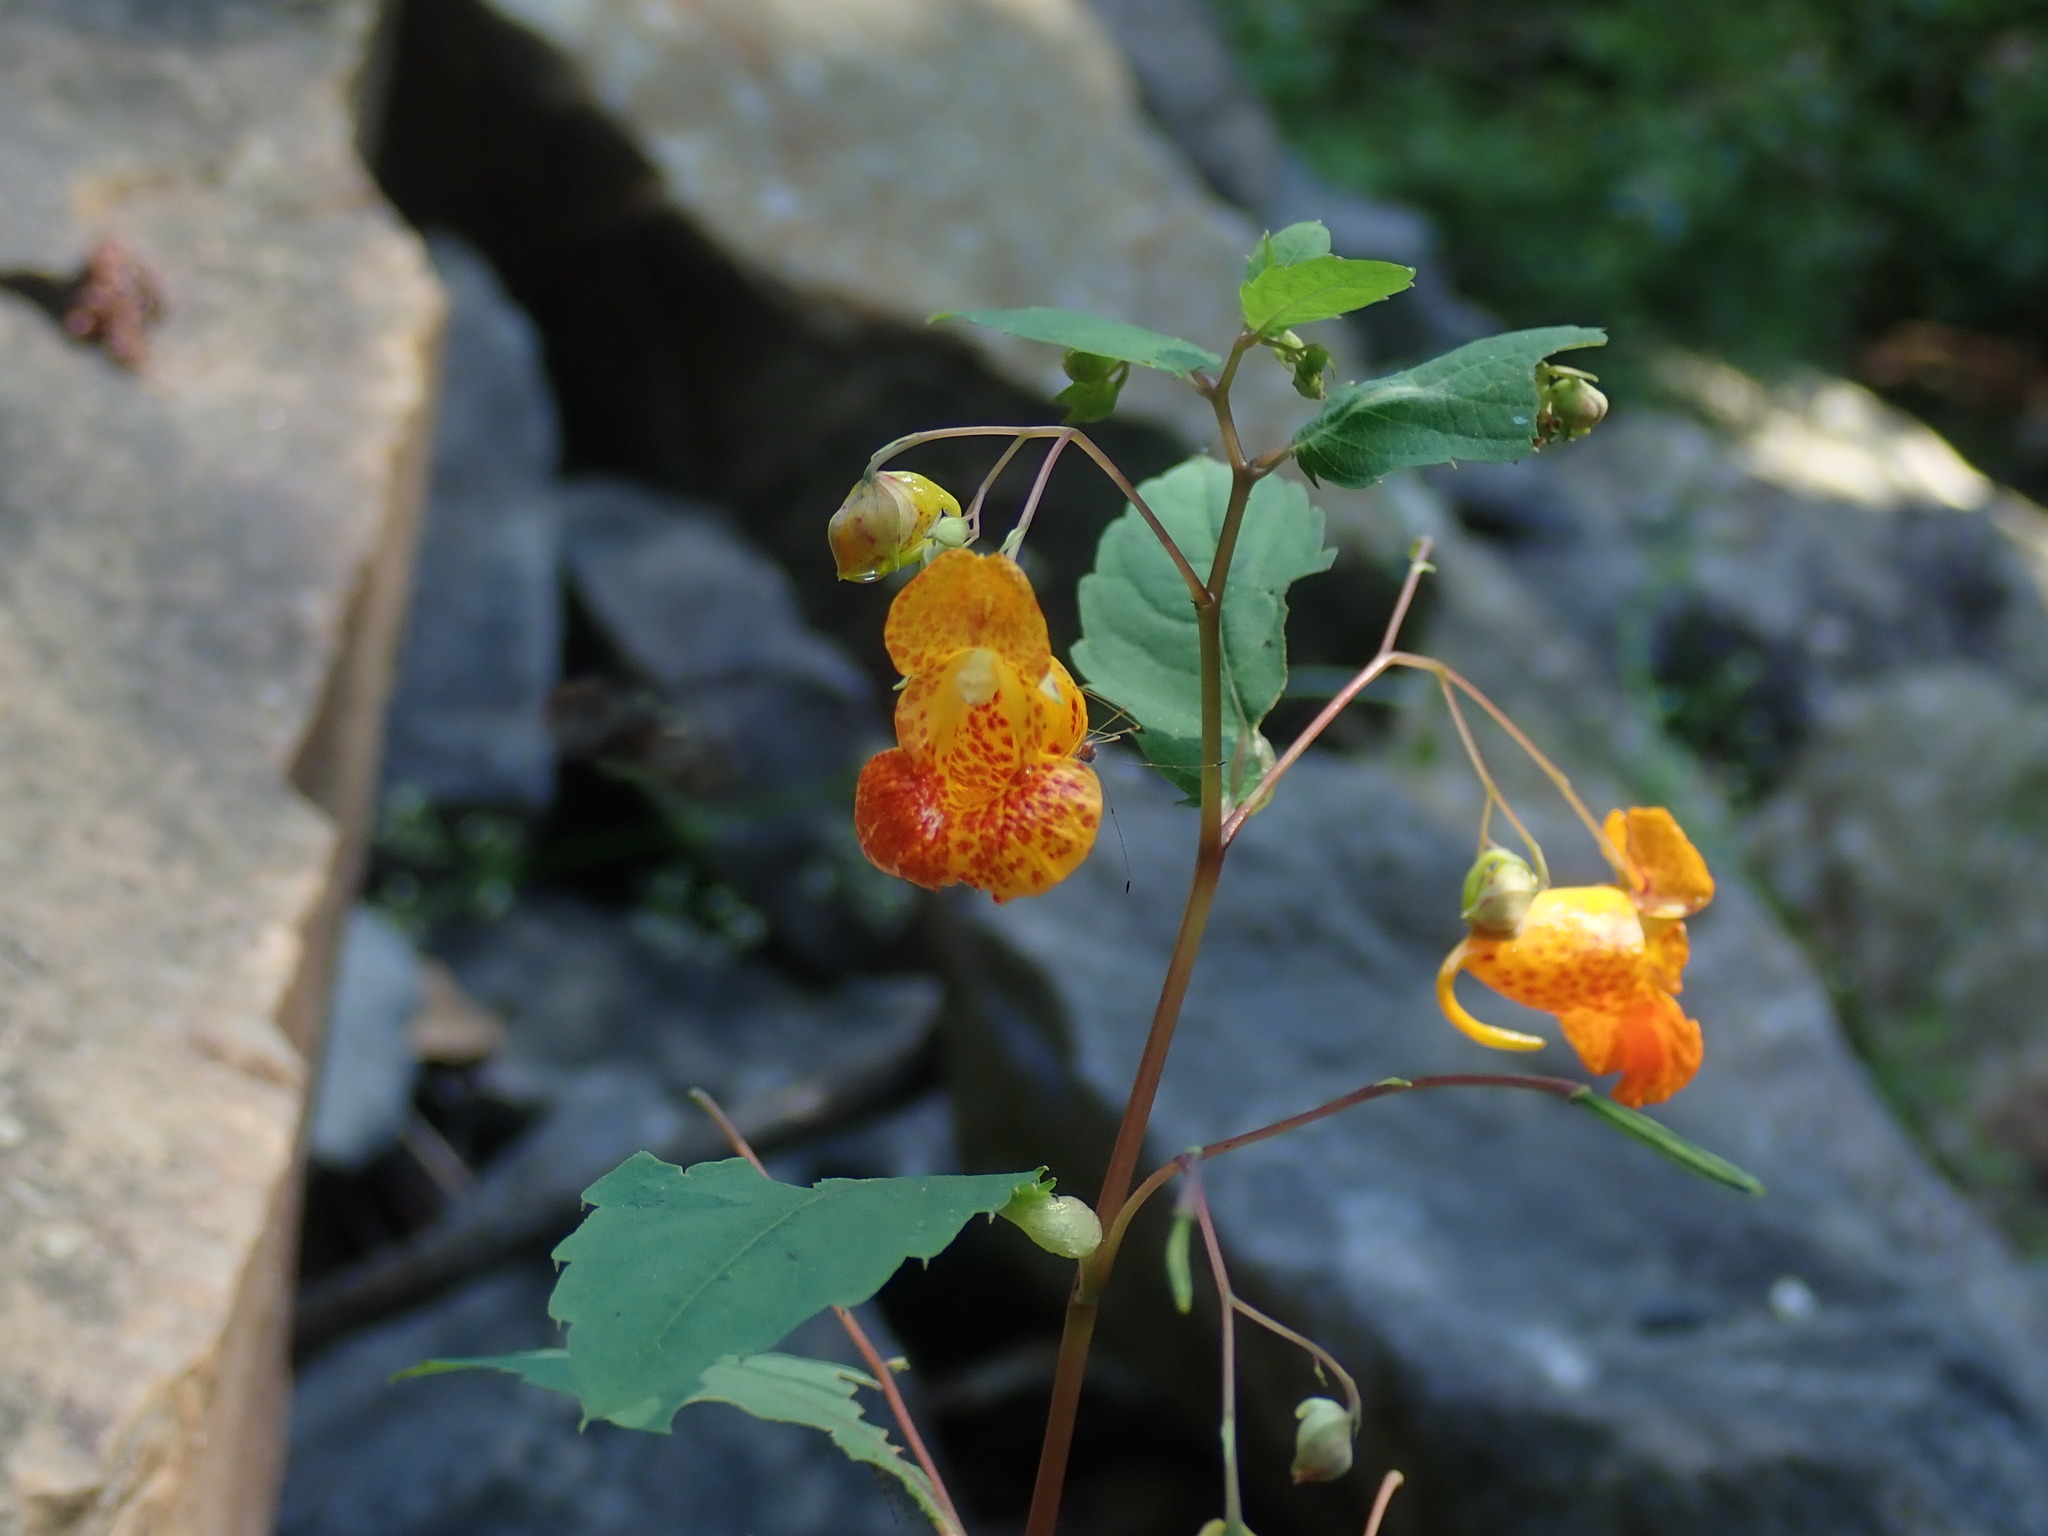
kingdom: Plantae
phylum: Tracheophyta
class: Magnoliopsida
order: Ericales
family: Balsaminaceae
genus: Impatiens
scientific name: Impatiens capensis
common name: Orange balsam
